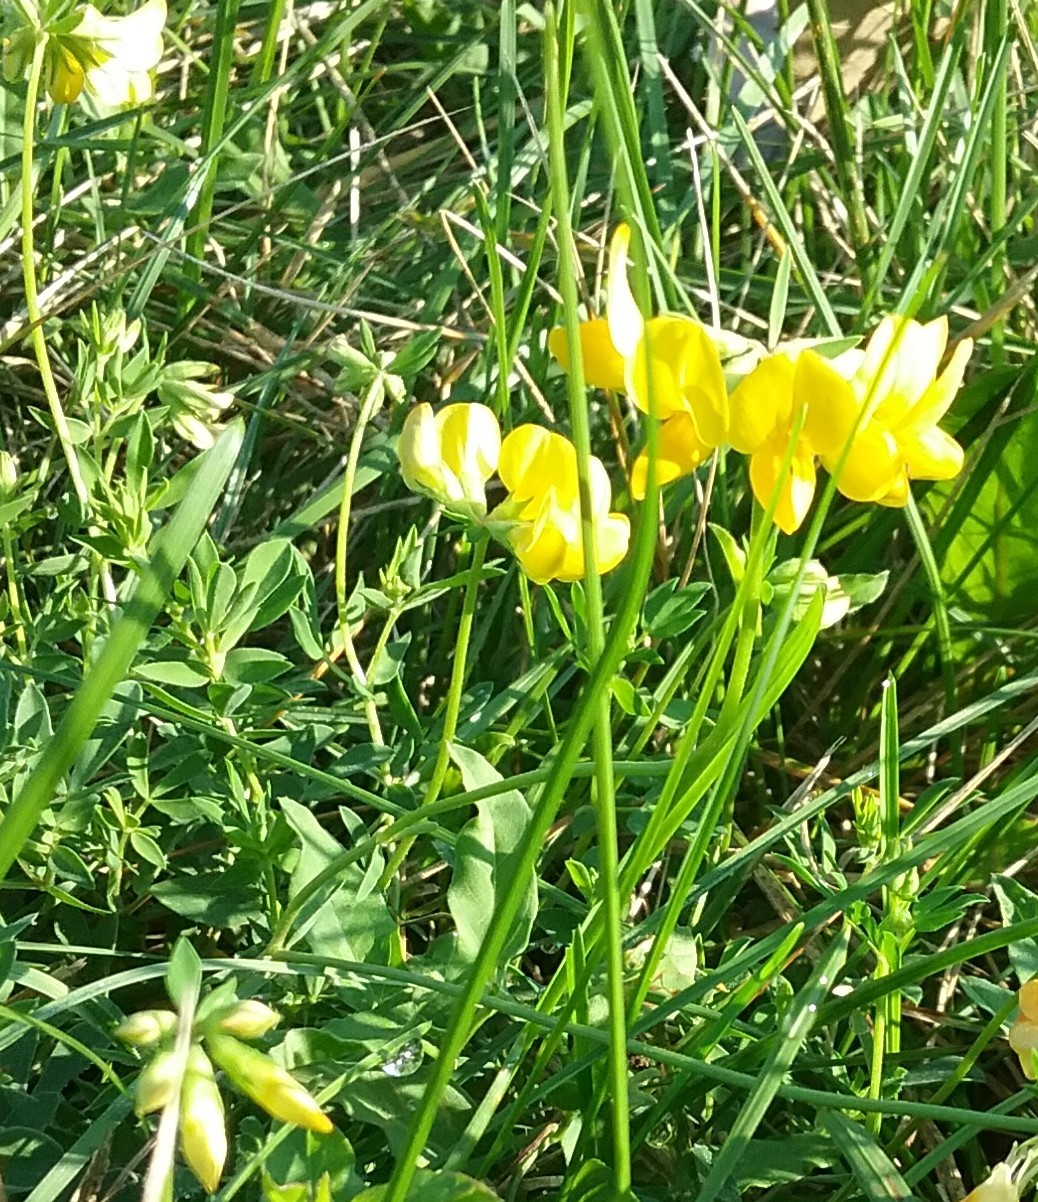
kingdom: Plantae
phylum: Tracheophyta
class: Magnoliopsida
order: Fabales
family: Fabaceae
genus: Lotus
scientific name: Lotus corniculatus
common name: Common bird's-foot-trefoil
